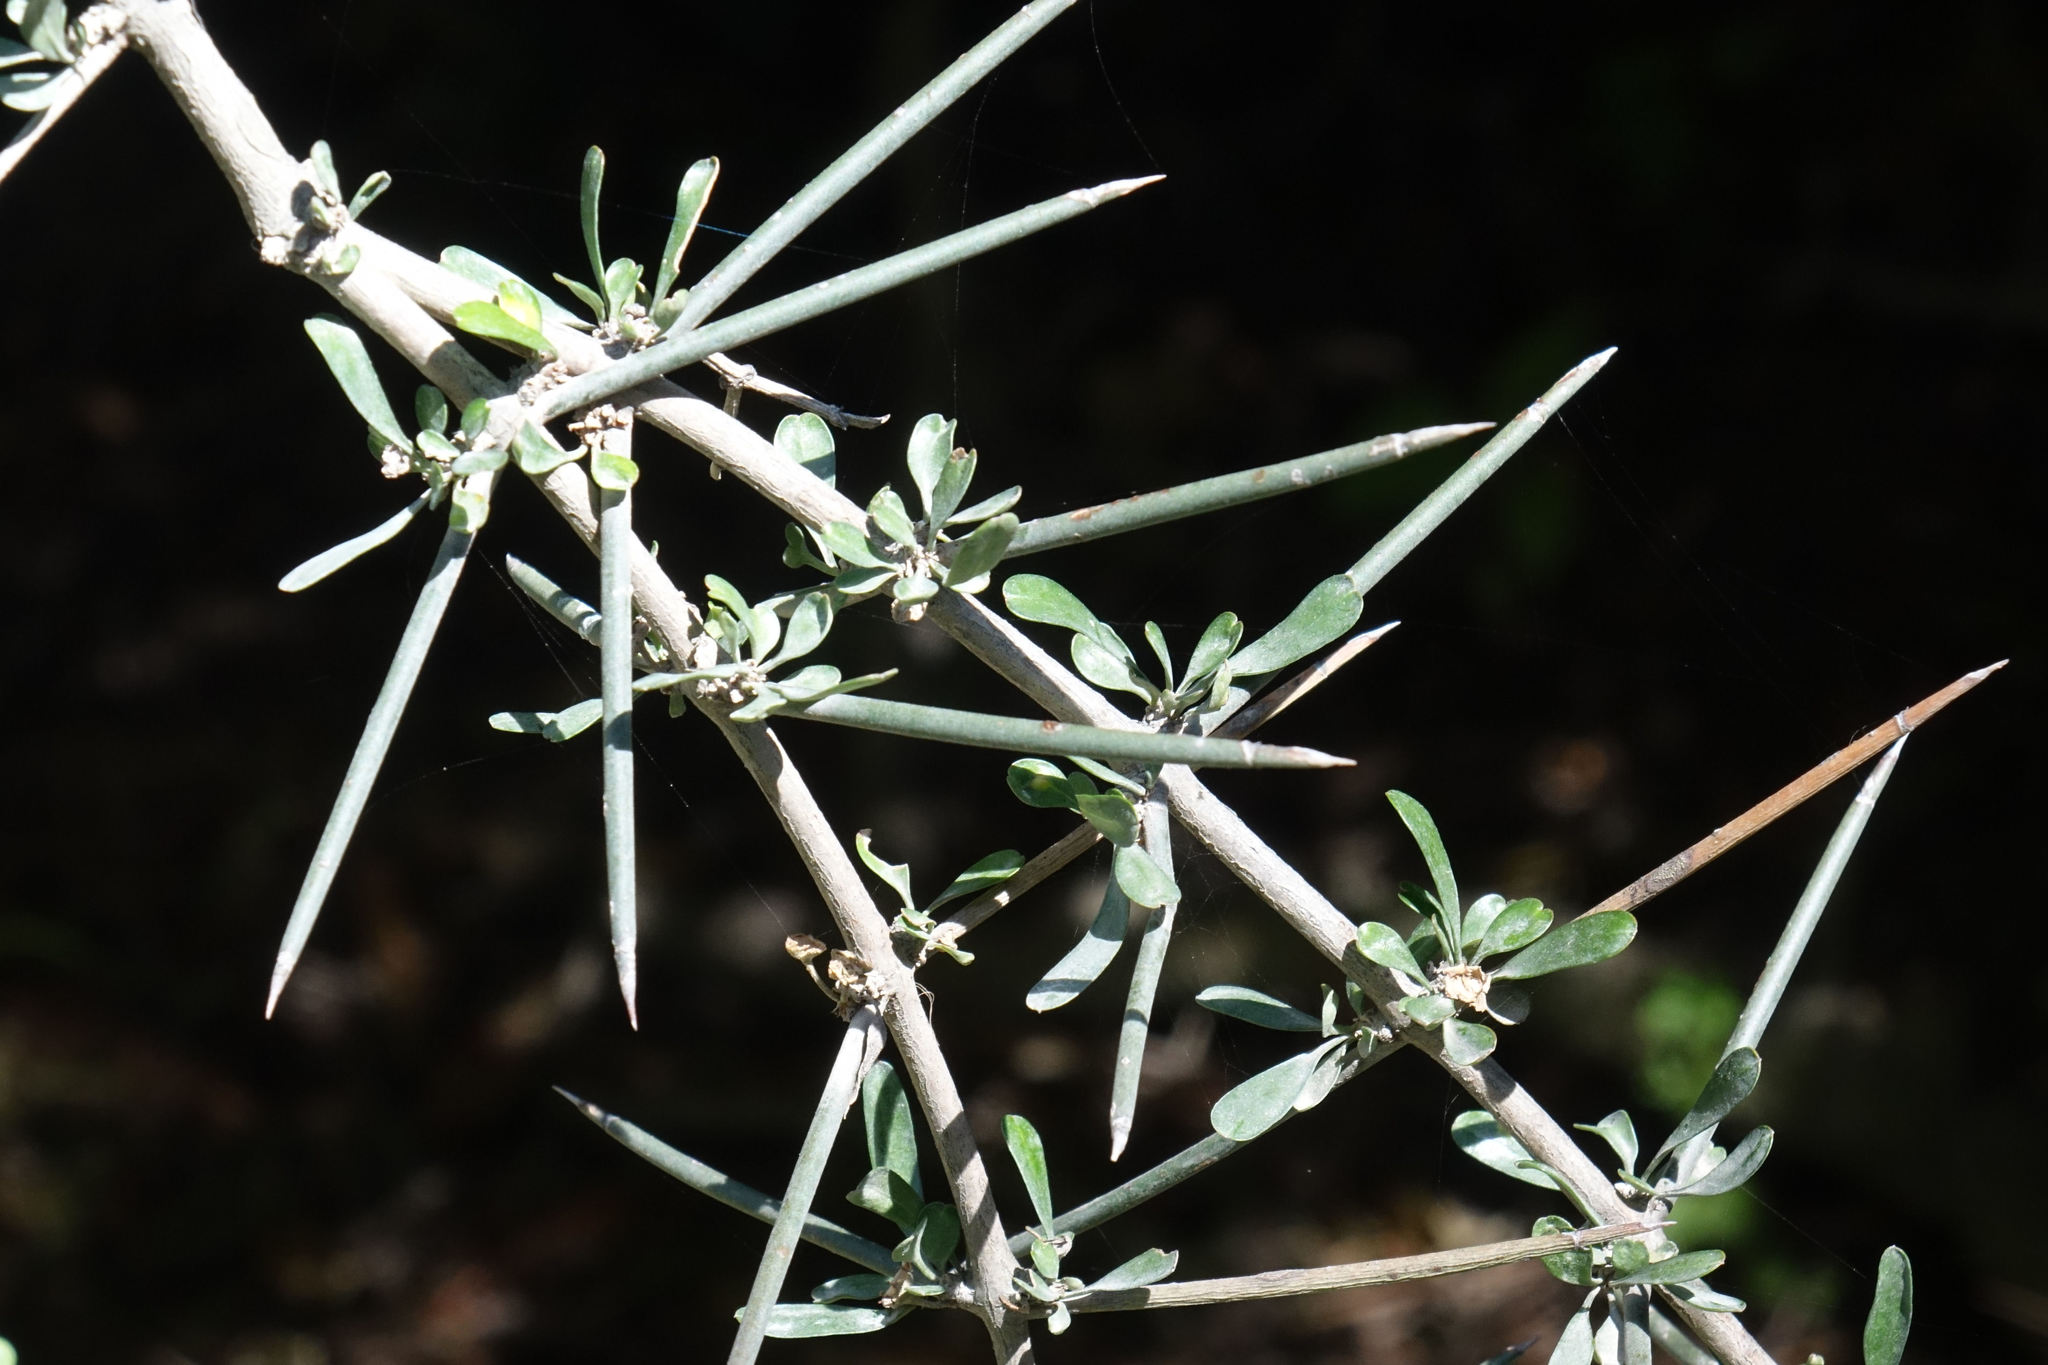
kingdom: Plantae
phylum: Tracheophyta
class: Magnoliopsida
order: Rosales
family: Rhamnaceae
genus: Discaria
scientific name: Discaria toumatou
